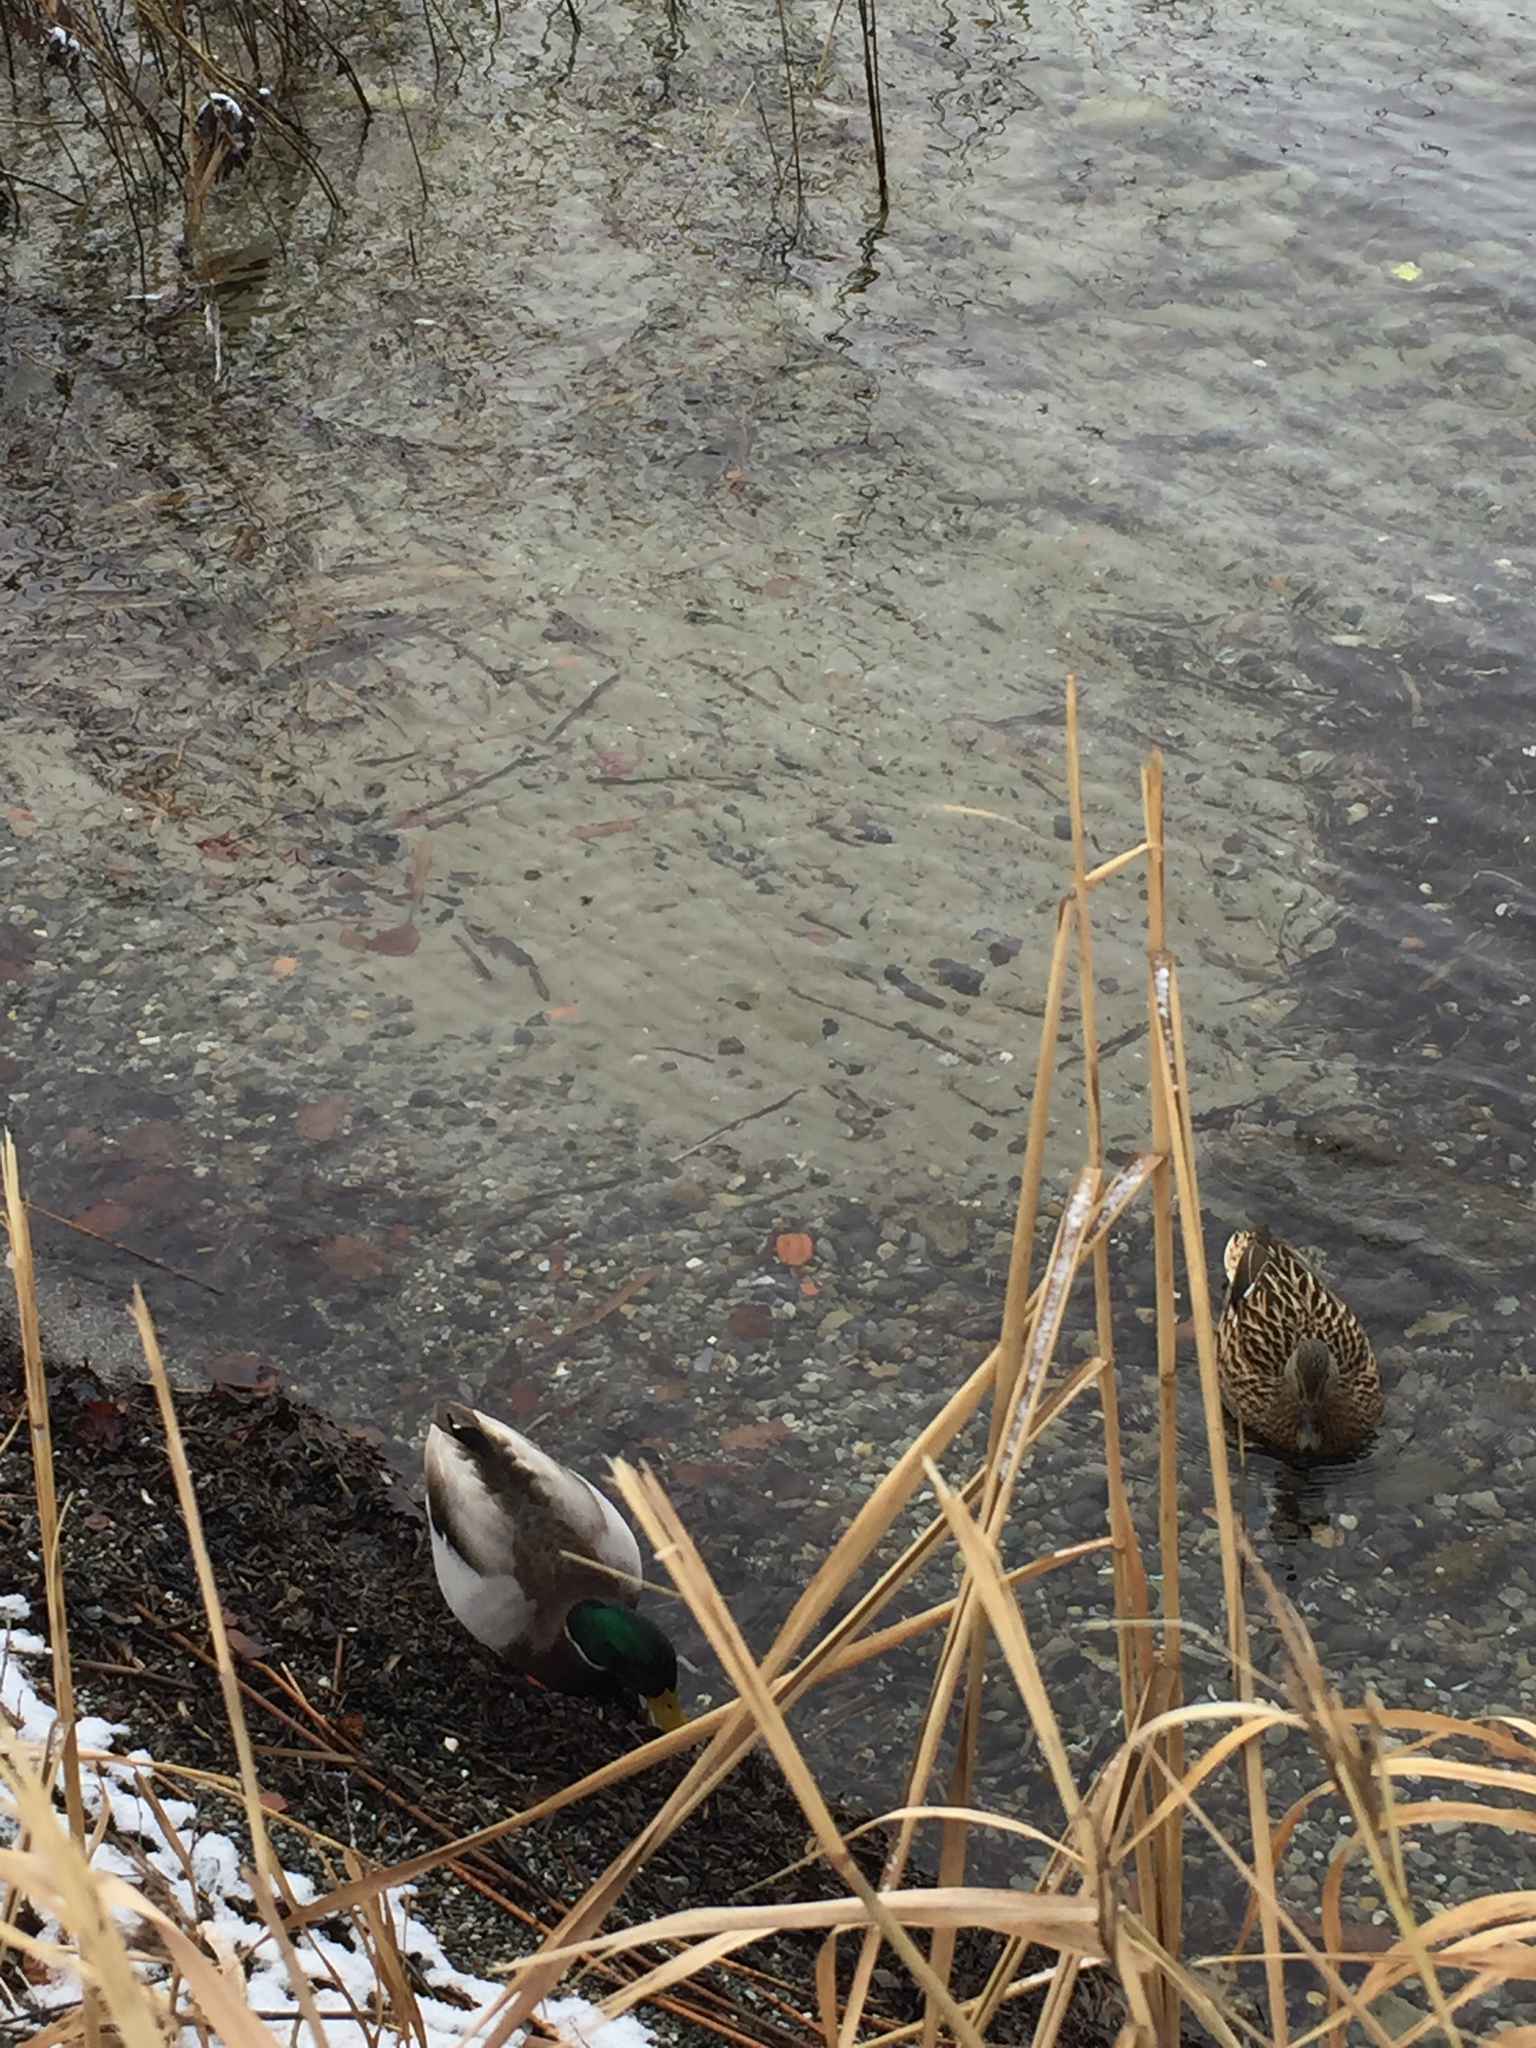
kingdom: Animalia
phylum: Chordata
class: Aves
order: Anseriformes
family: Anatidae
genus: Anas
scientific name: Anas platyrhynchos
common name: Mallard
